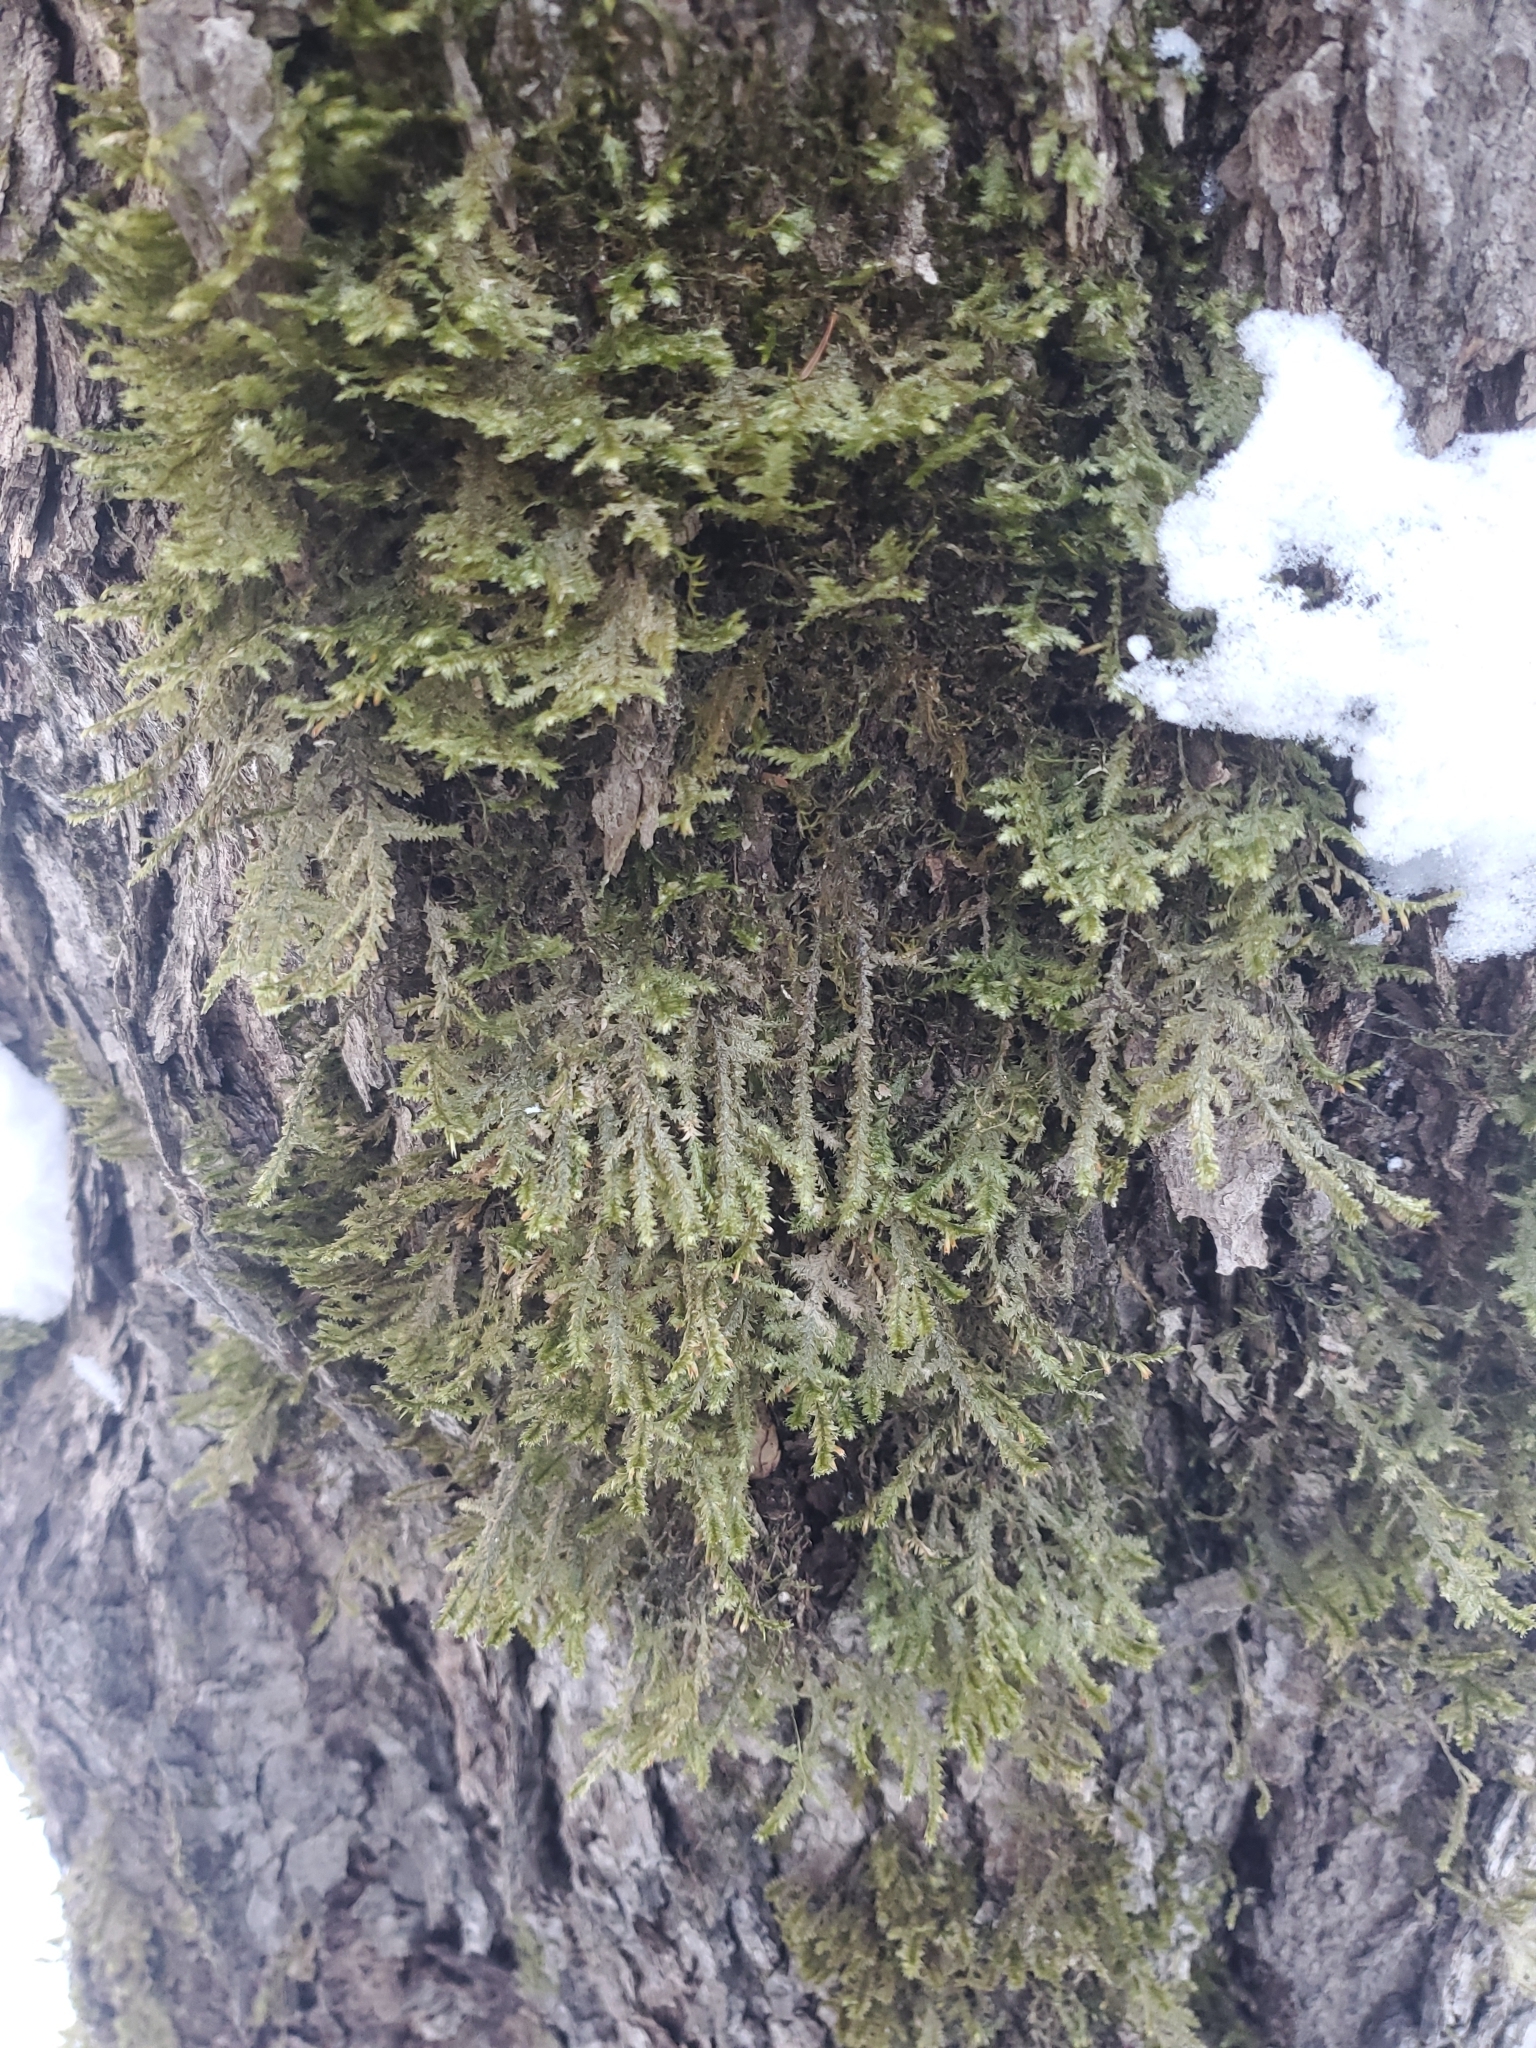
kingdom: Plantae
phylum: Bryophyta
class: Bryopsida
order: Hypnales
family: Neckeraceae
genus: Neckera
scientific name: Neckera pennata
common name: Feathery neckera
